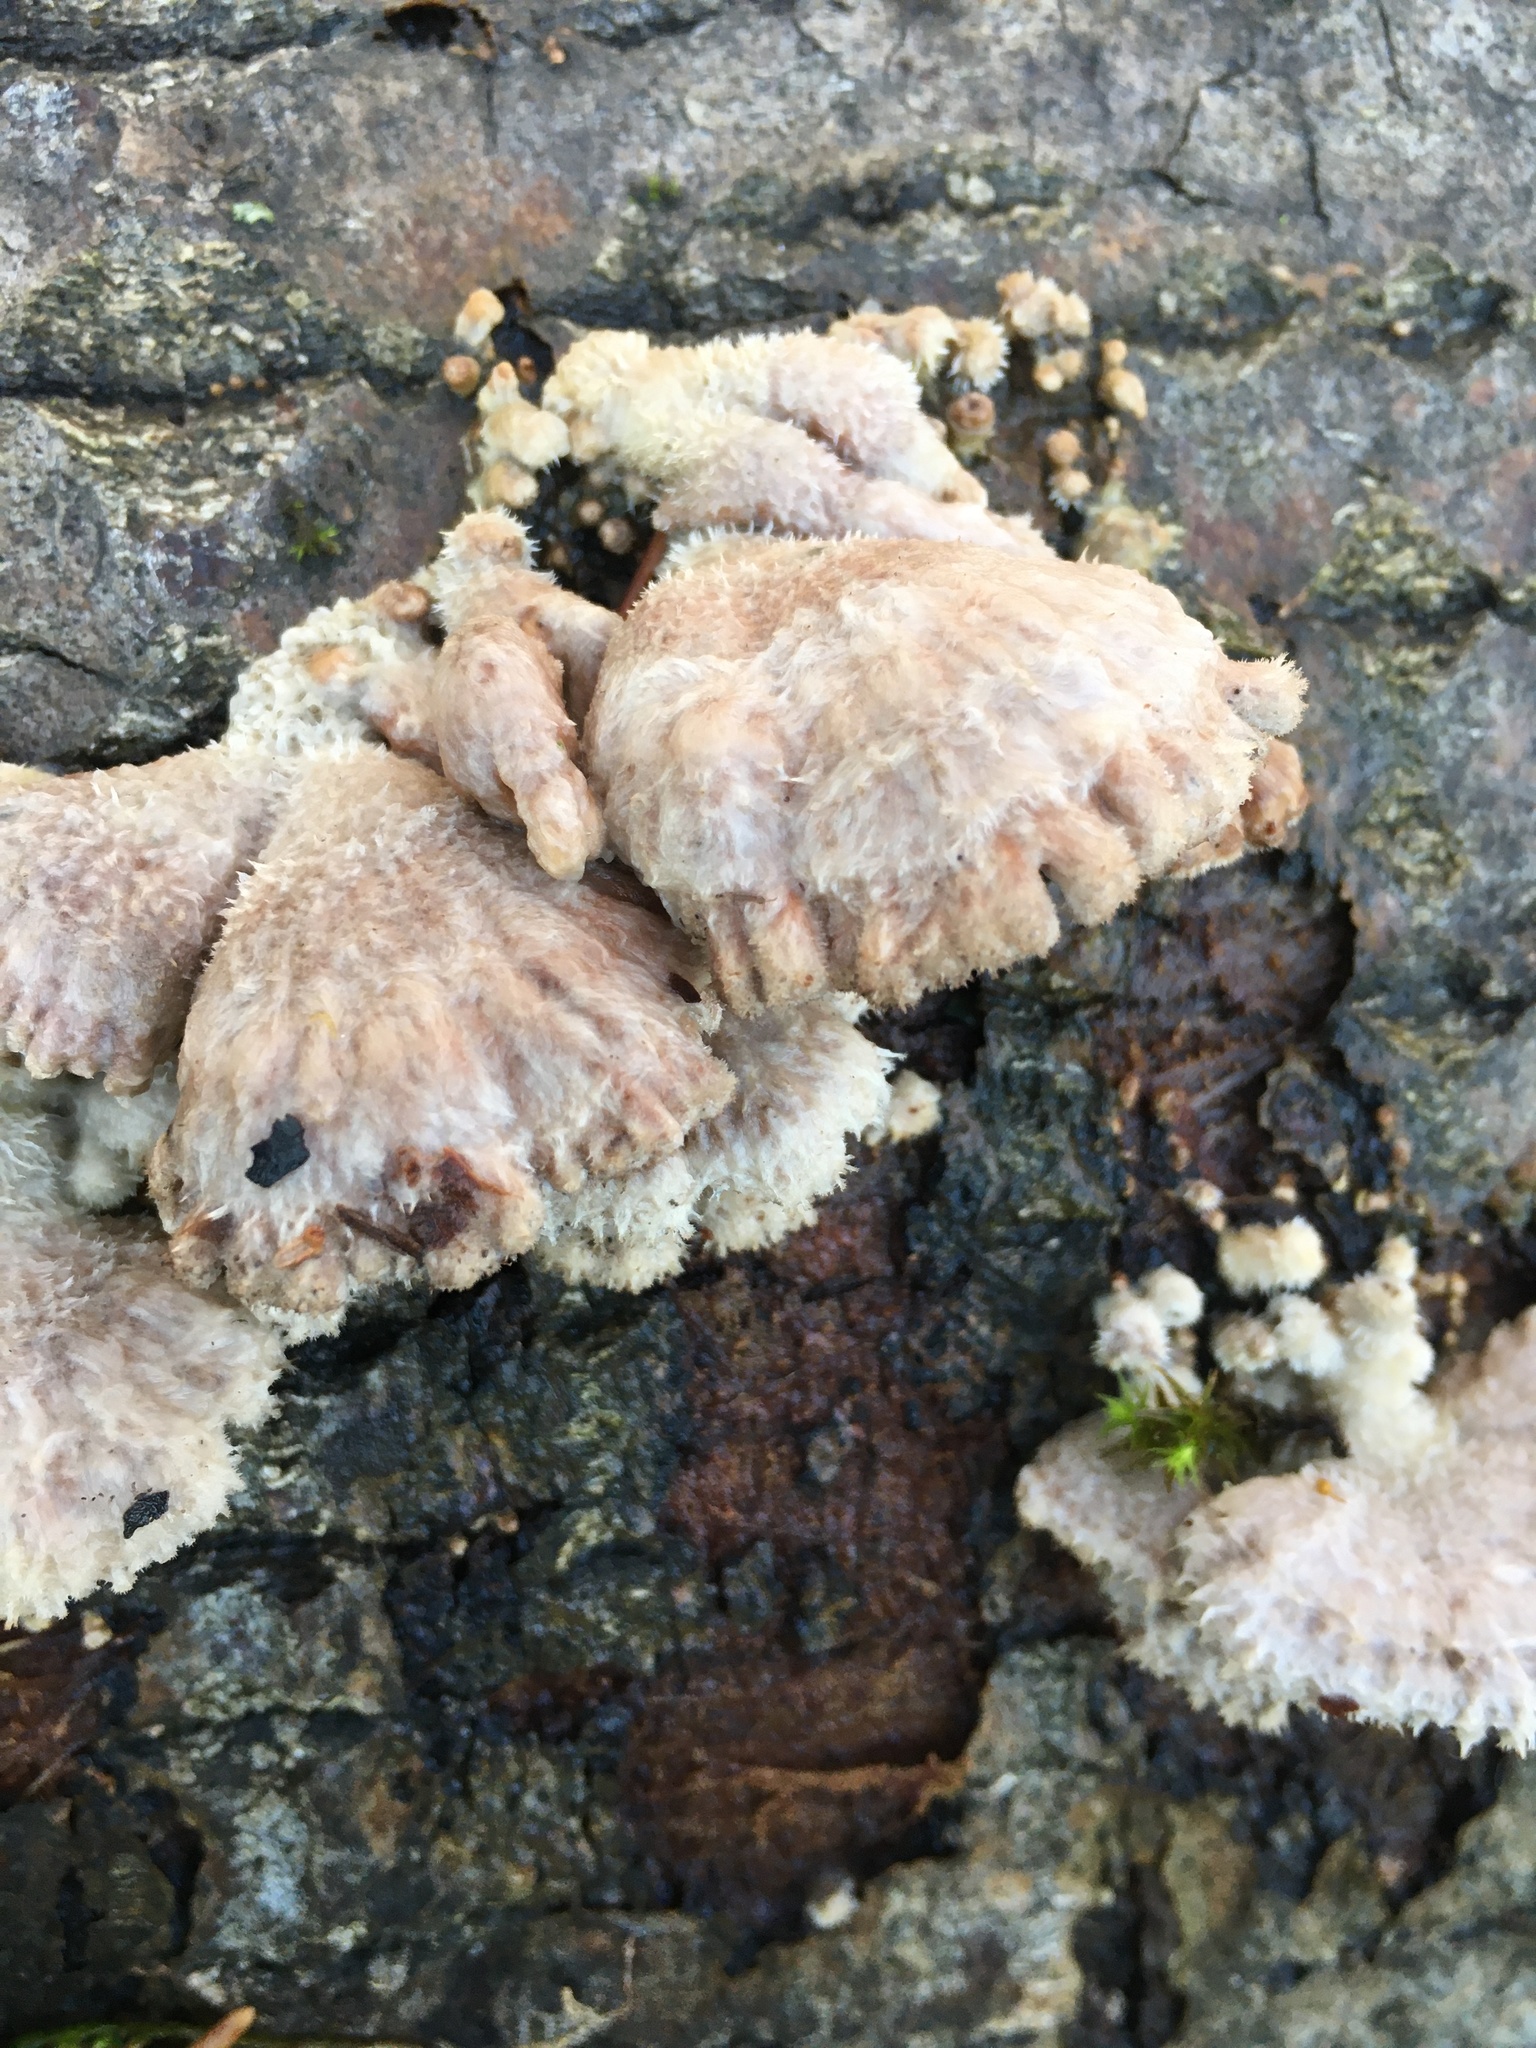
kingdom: Fungi
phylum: Basidiomycota
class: Agaricomycetes
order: Agaricales
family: Schizophyllaceae
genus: Schizophyllum
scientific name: Schizophyllum commune
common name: Common porecrust
